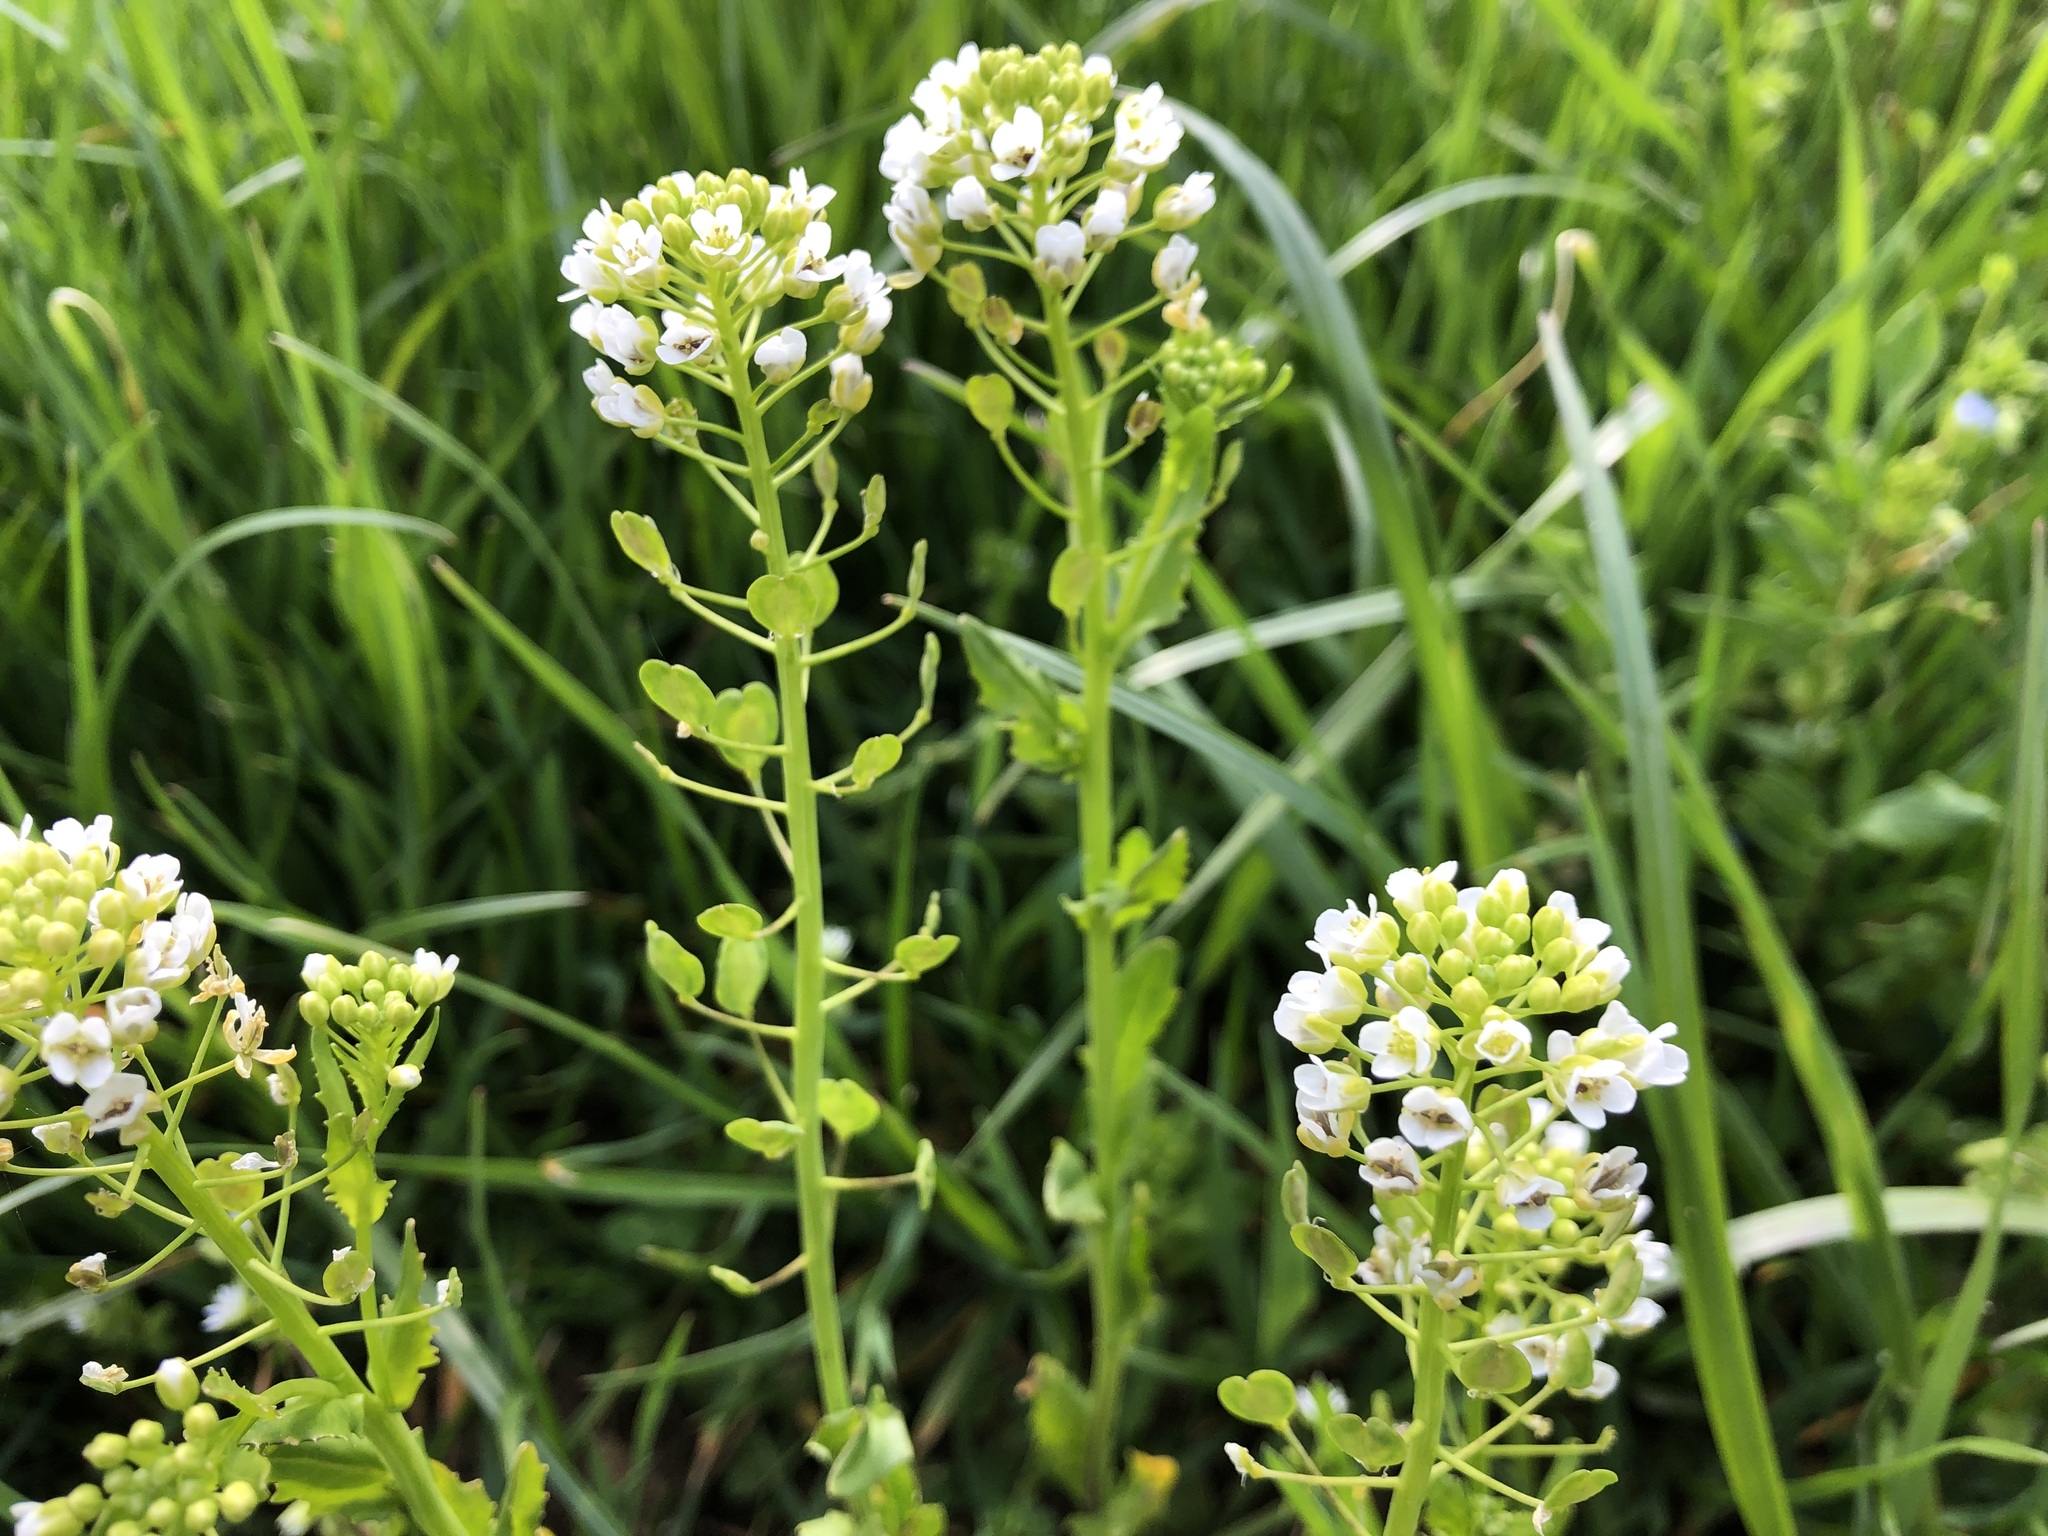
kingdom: Plantae
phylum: Tracheophyta
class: Magnoliopsida
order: Brassicales
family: Brassicaceae
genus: Thlaspi
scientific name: Thlaspi arvense
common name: Field pennycress
